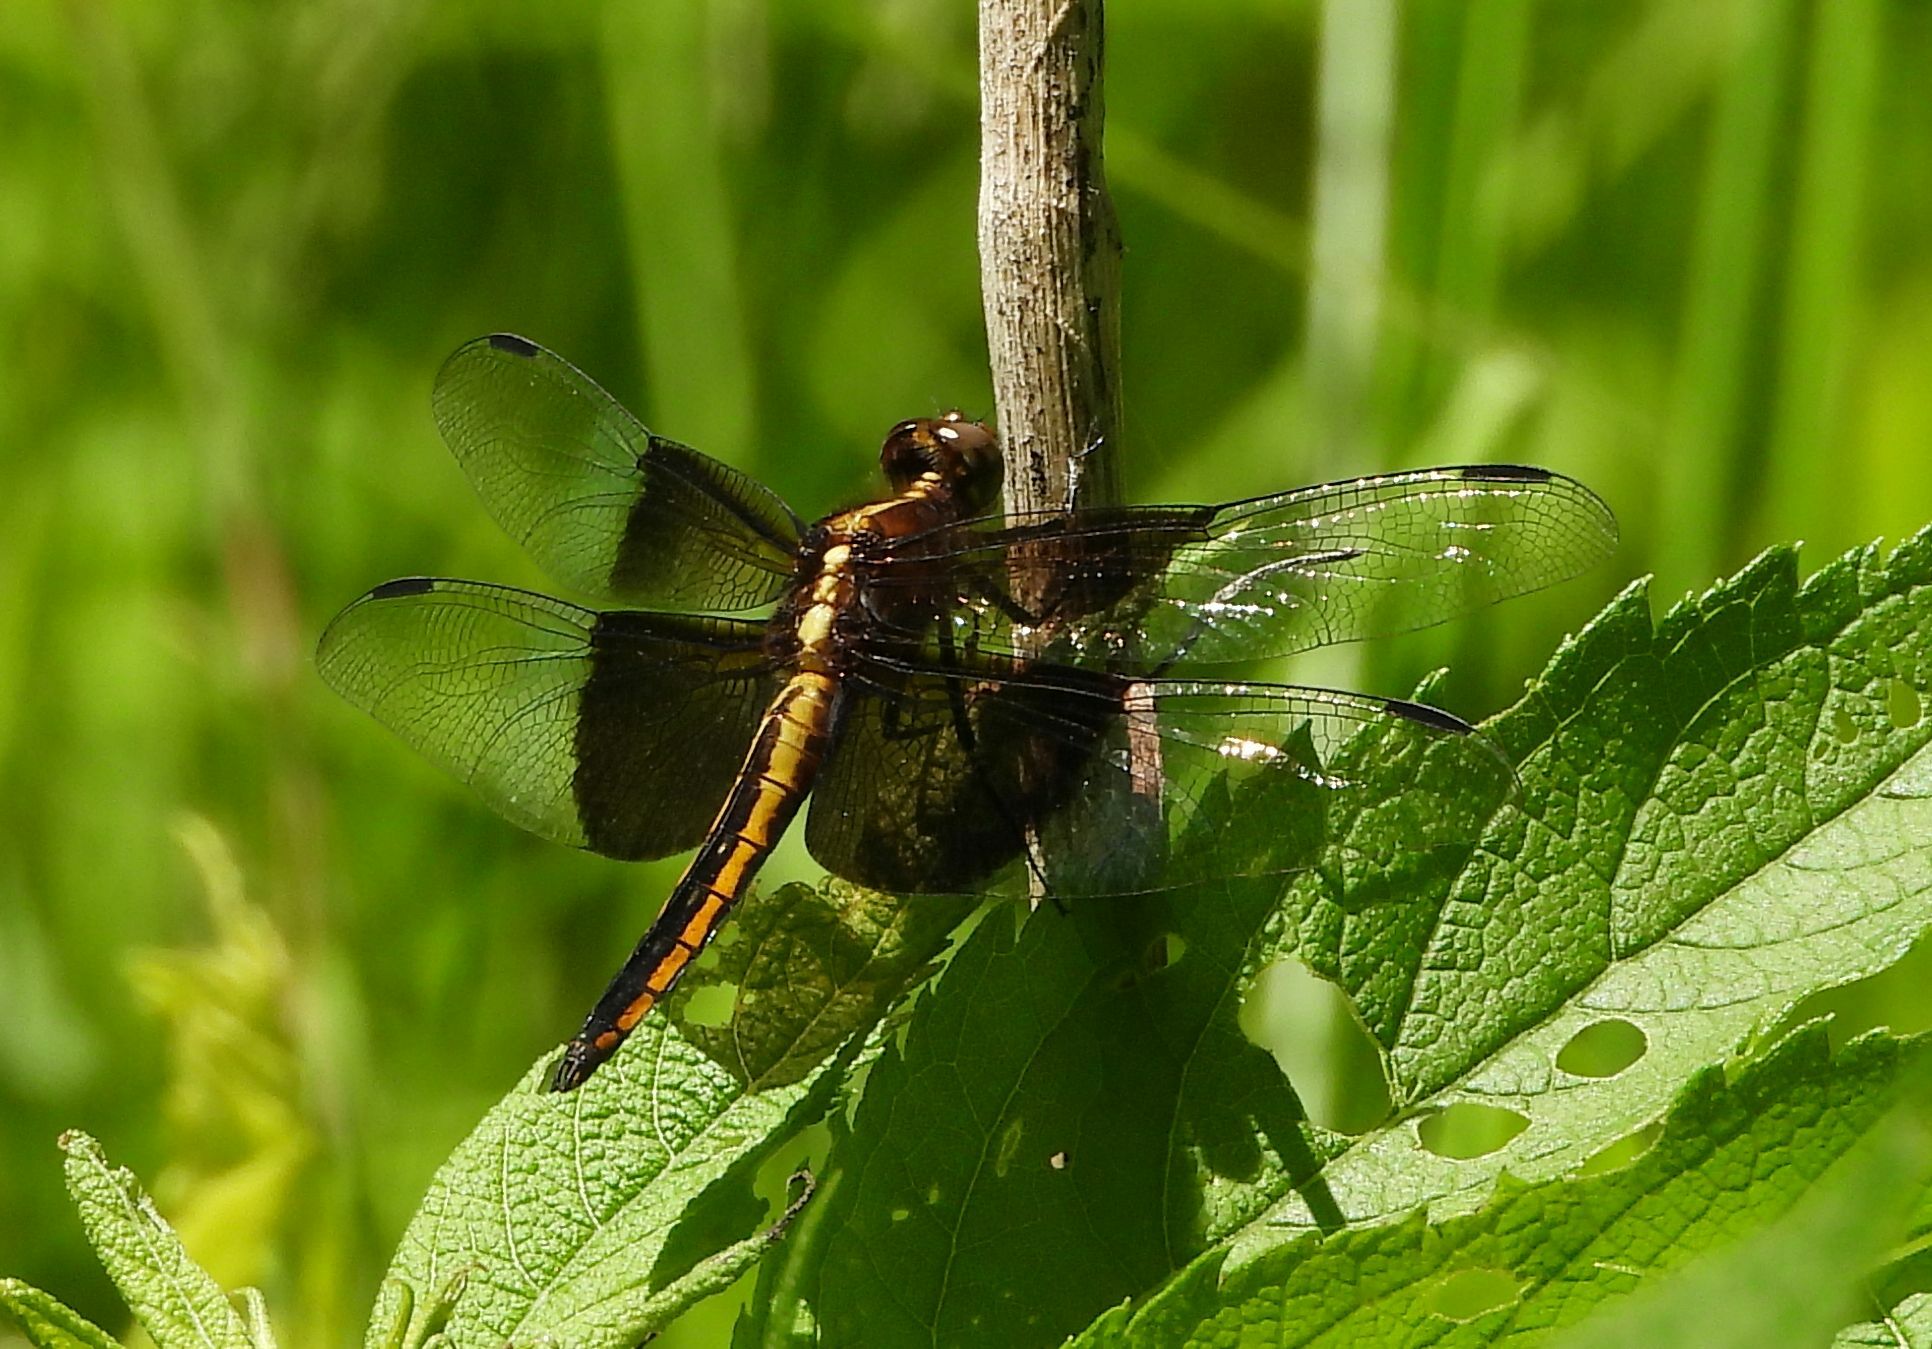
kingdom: Animalia
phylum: Arthropoda
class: Insecta
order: Odonata
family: Libellulidae
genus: Libellula
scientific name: Libellula luctuosa
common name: Widow skimmer
